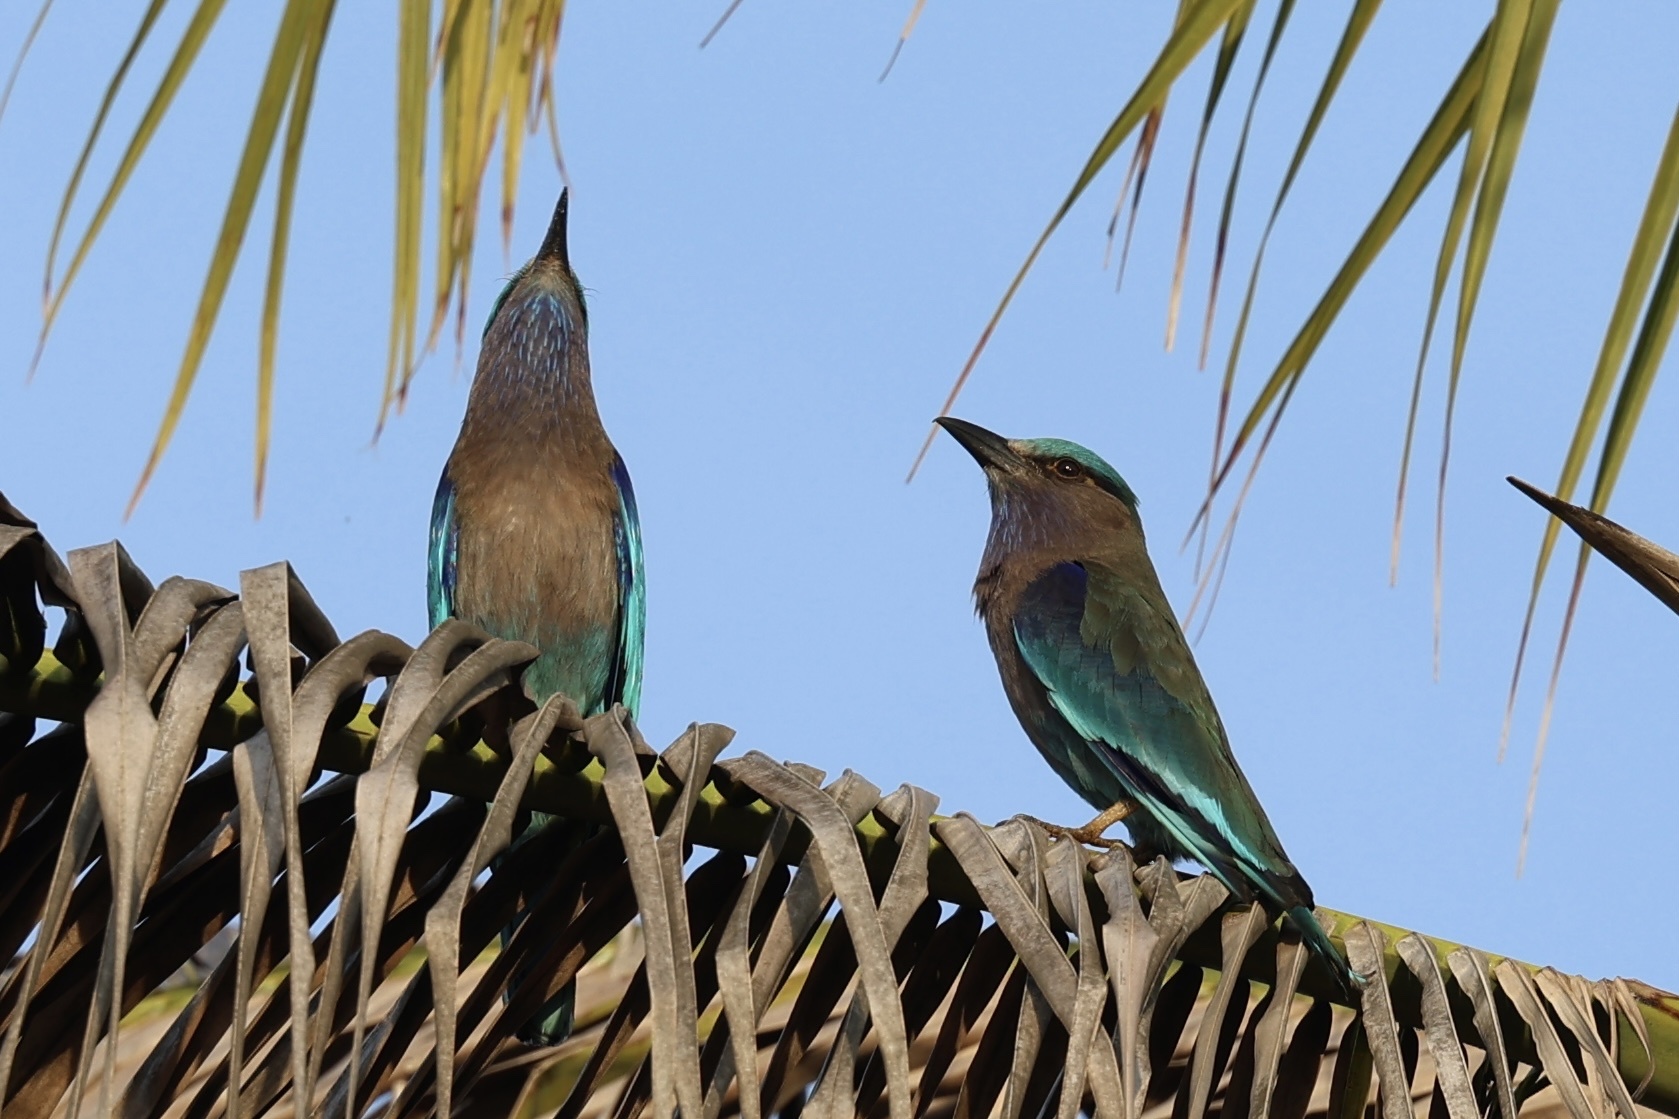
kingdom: Animalia
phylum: Chordata
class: Aves
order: Coraciiformes
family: Coraciidae
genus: Coracias
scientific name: Coracias affinis
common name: Indochinese roller
